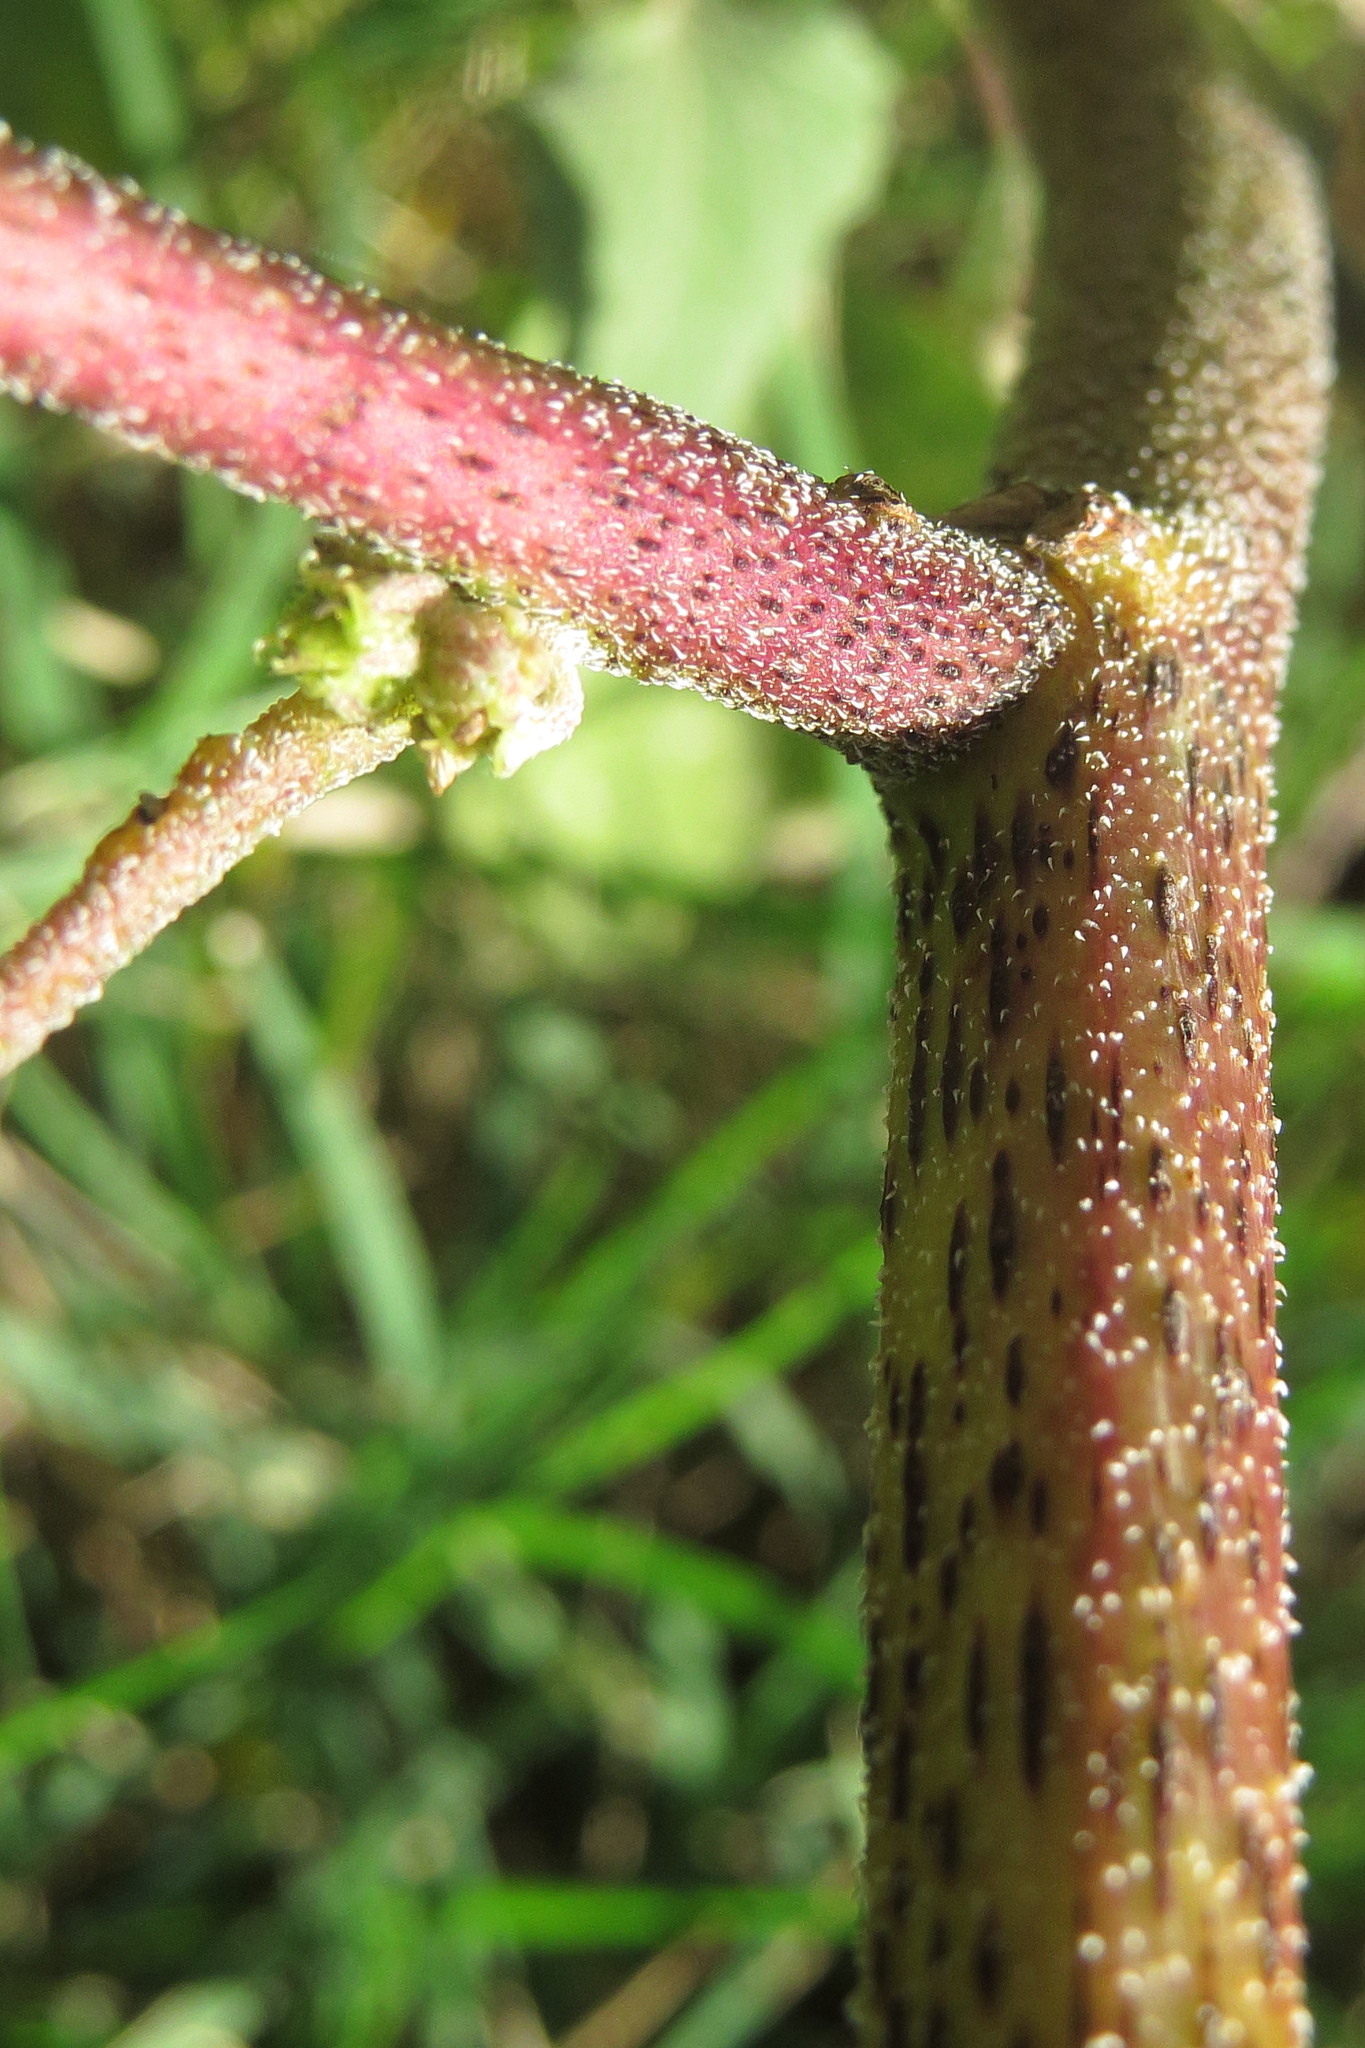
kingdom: Plantae
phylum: Tracheophyta
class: Magnoliopsida
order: Asterales
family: Asteraceae
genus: Xanthium
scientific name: Xanthium orientale
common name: Californian burr
